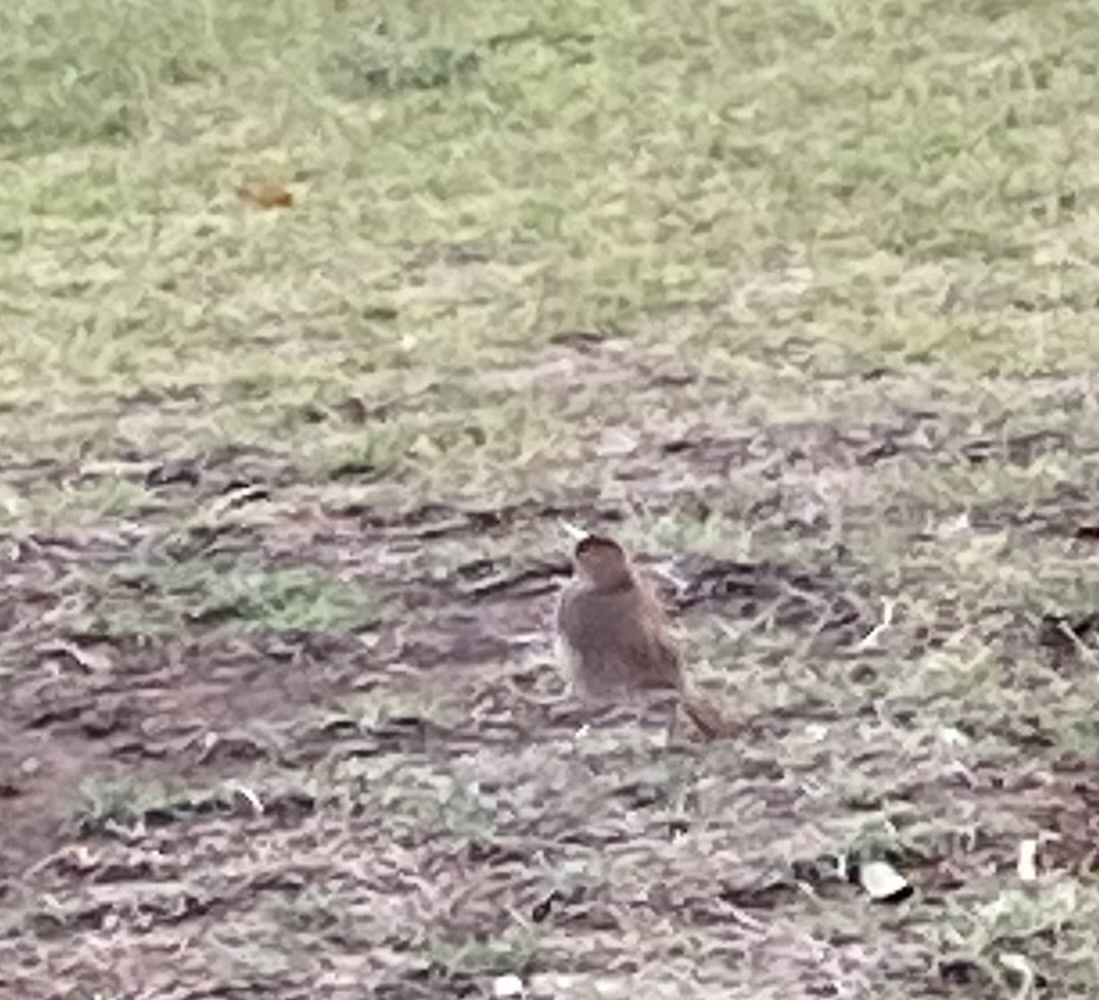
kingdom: Animalia
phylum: Chordata
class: Aves
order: Passeriformes
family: Furnariidae
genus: Furnarius
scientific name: Furnarius rufus
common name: Rufous hornero
